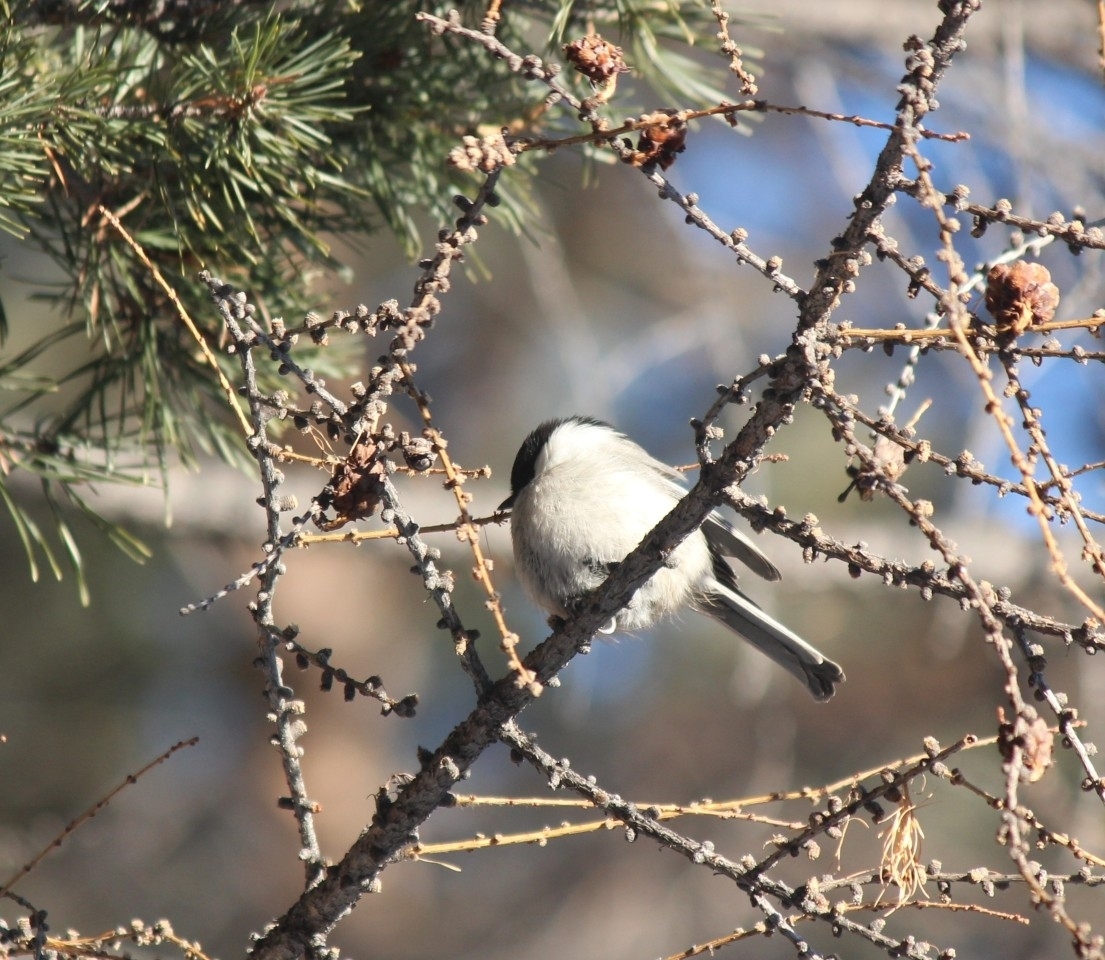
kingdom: Animalia
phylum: Chordata
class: Aves
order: Passeriformes
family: Paridae
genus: Poecile
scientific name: Poecile montanus
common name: Willow tit
